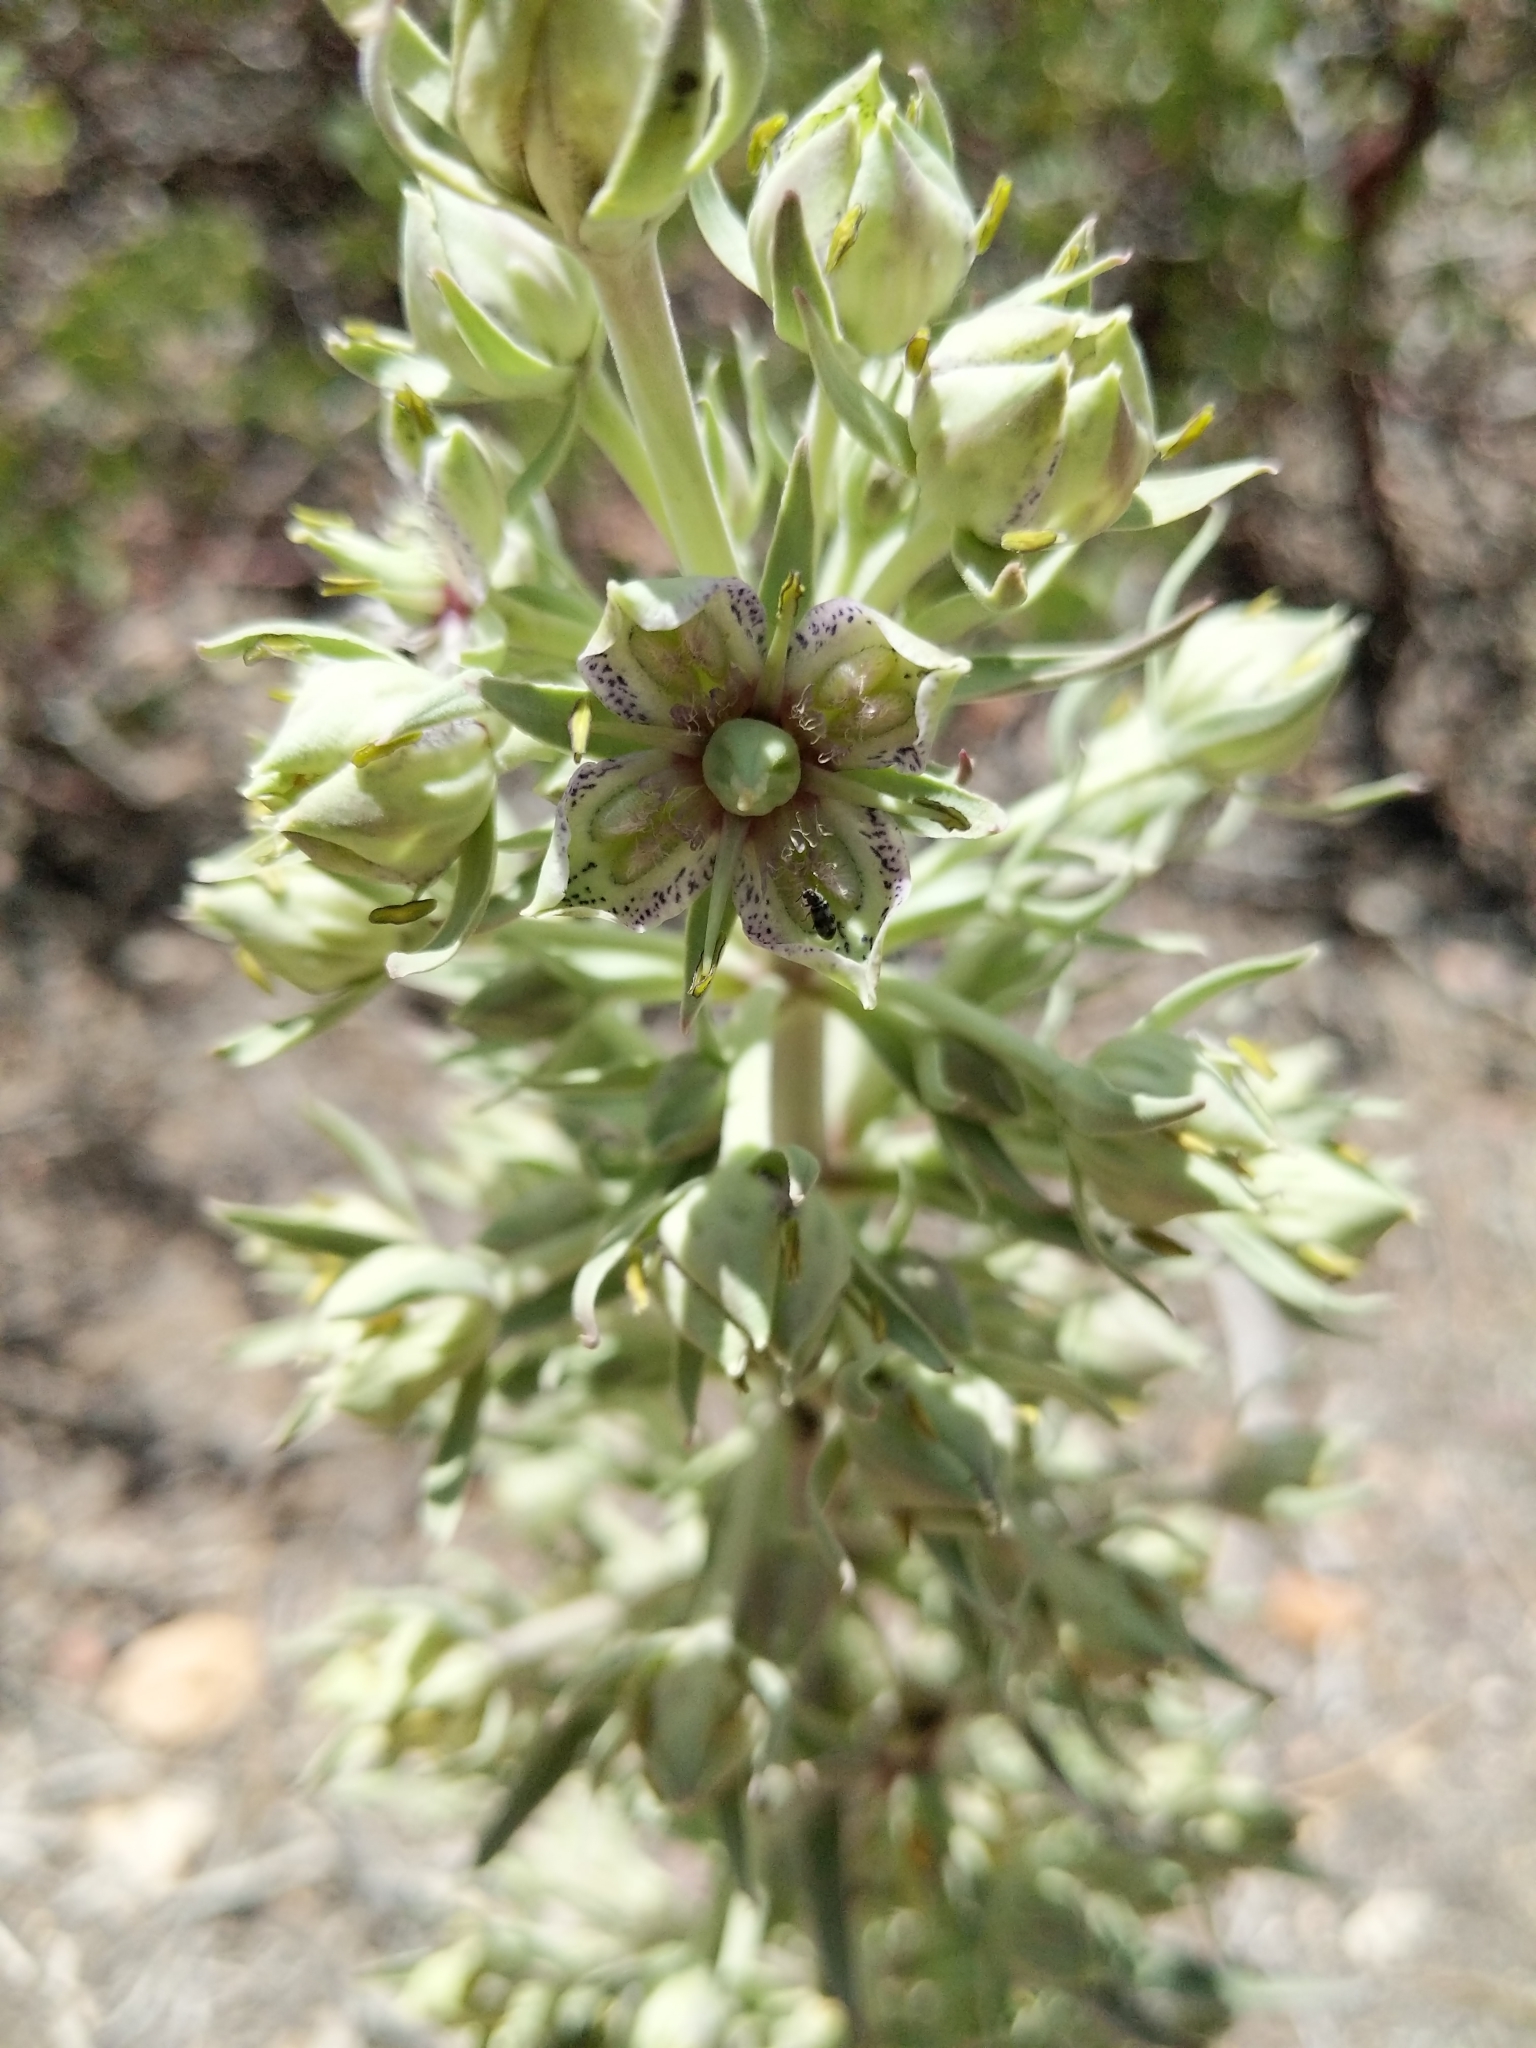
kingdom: Plantae
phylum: Tracheophyta
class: Magnoliopsida
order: Gentianales
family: Gentianaceae
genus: Frasera
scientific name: Frasera speciosa
